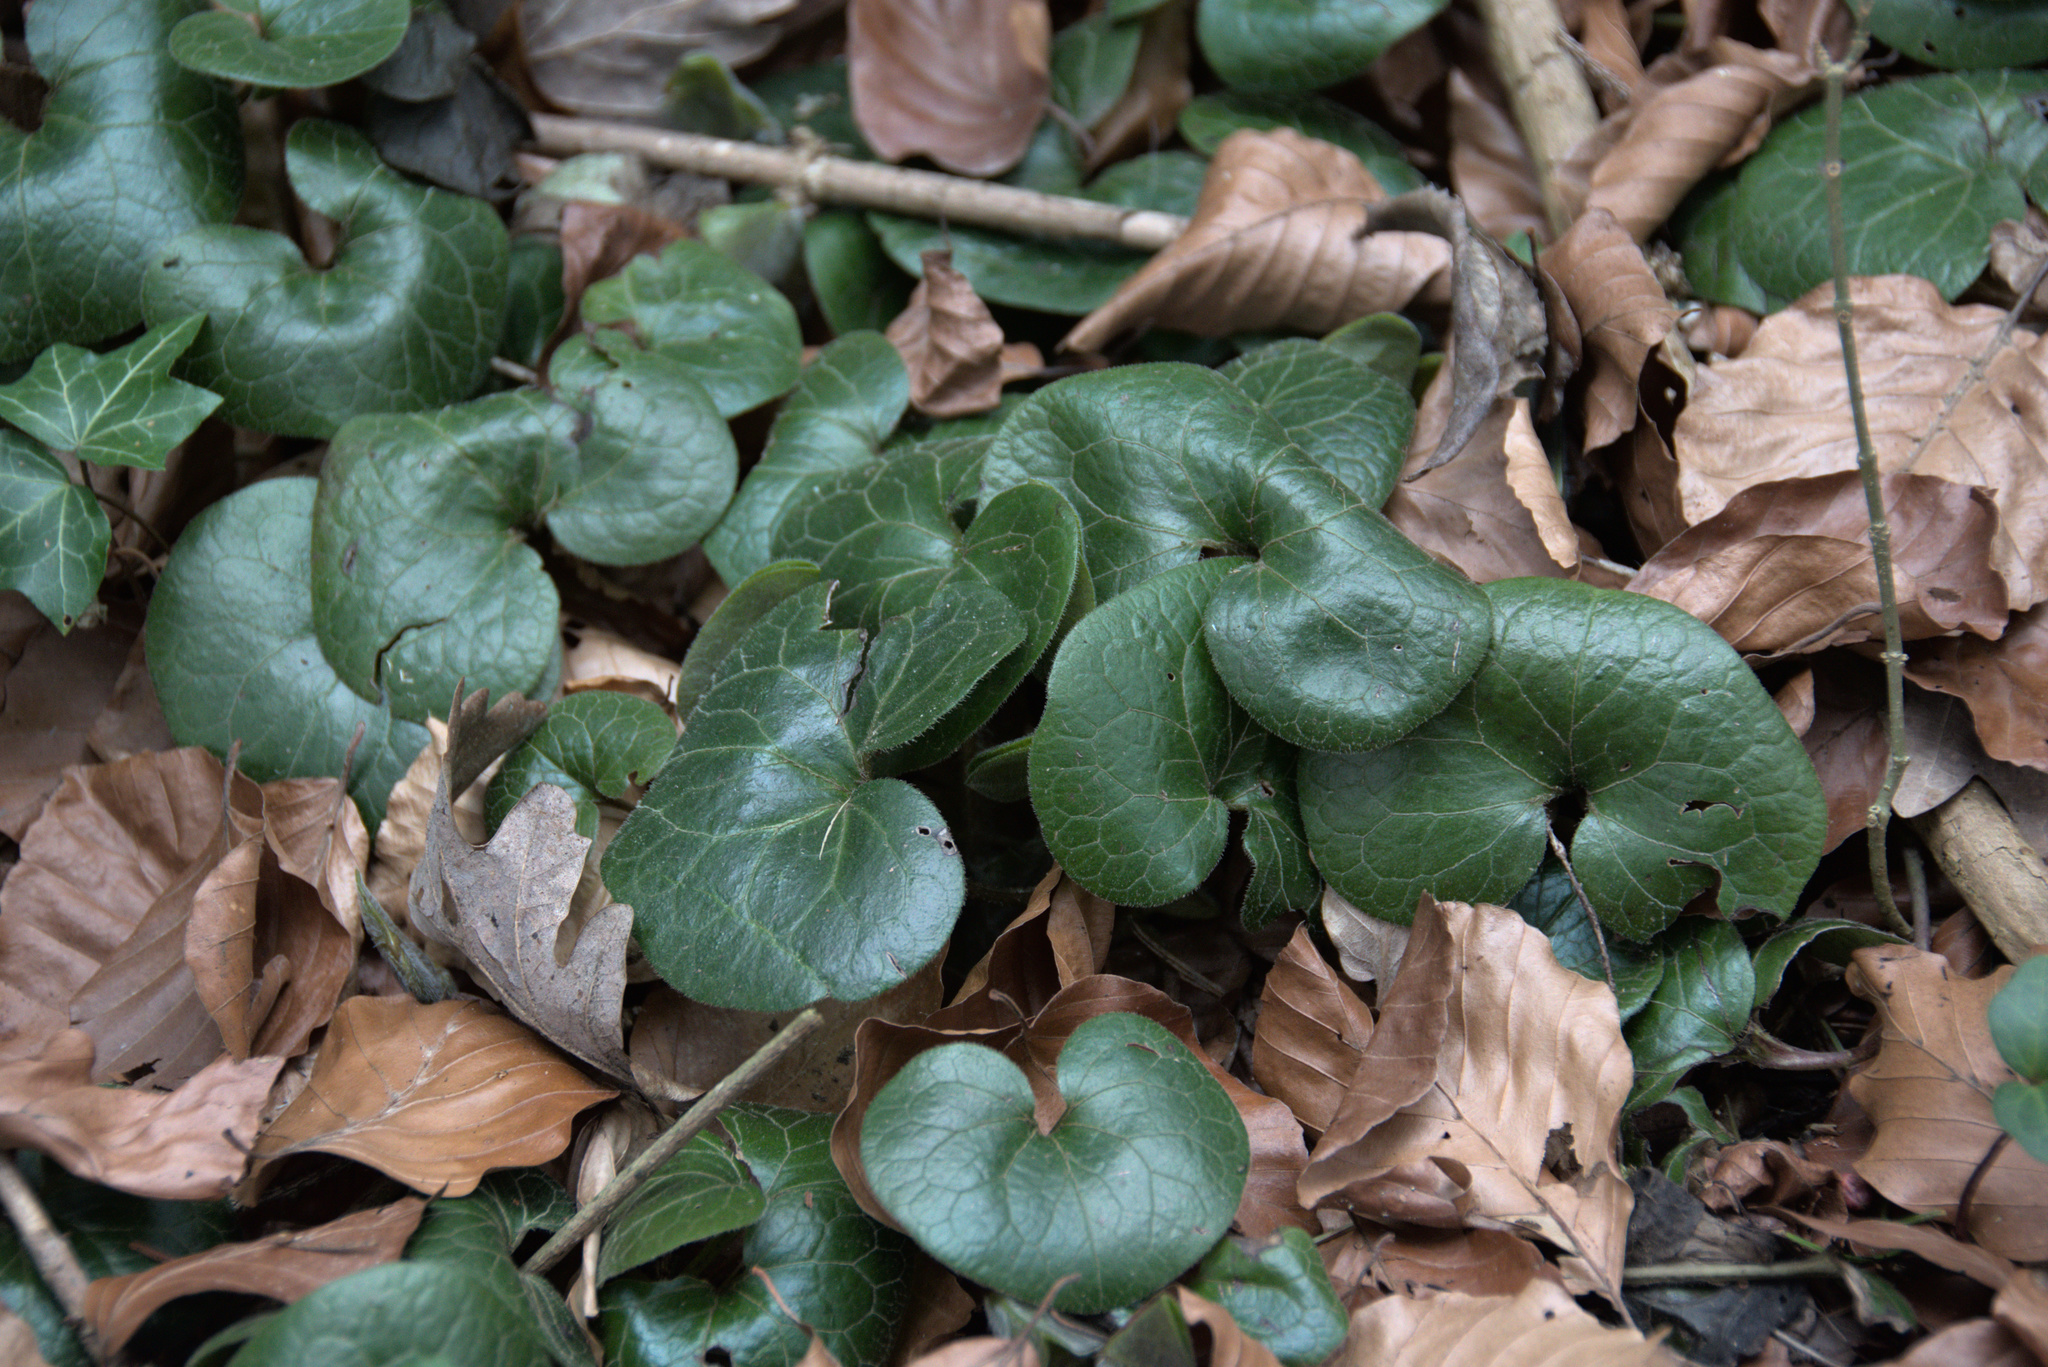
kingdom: Plantae
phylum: Tracheophyta
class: Magnoliopsida
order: Piperales
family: Aristolochiaceae
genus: Asarum
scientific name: Asarum europaeum
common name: Asarabacca
